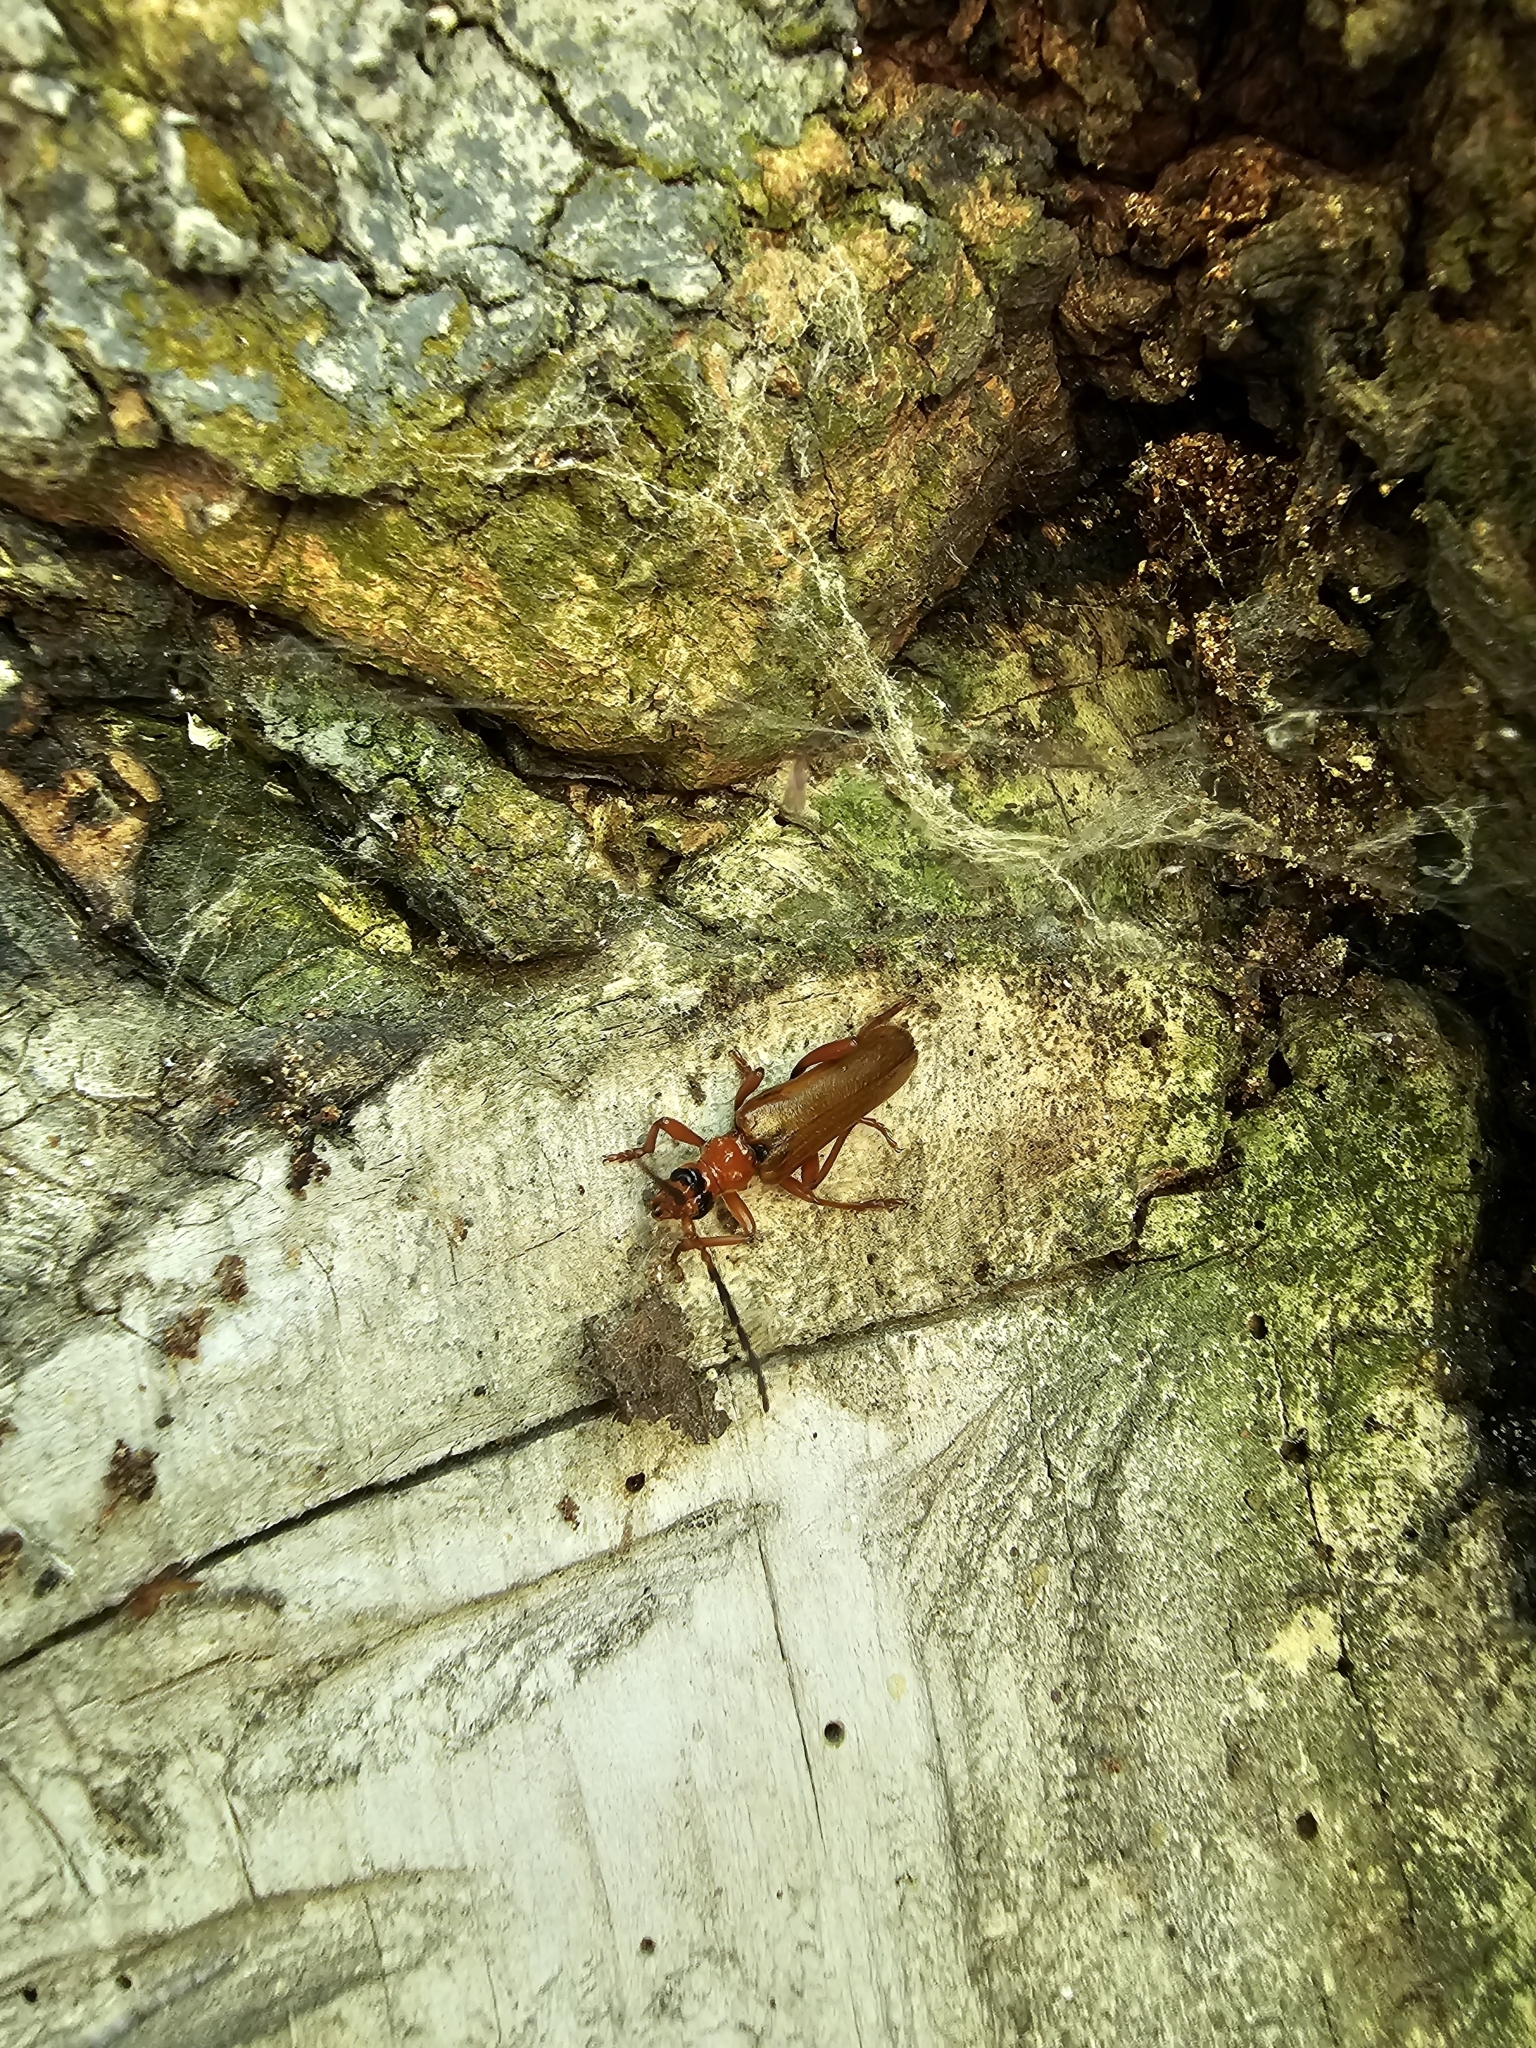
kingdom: Animalia
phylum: Arthropoda
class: Insecta
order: Coleoptera
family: Cerambycidae
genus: Rhamnusium
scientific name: Rhamnusium bicolor
